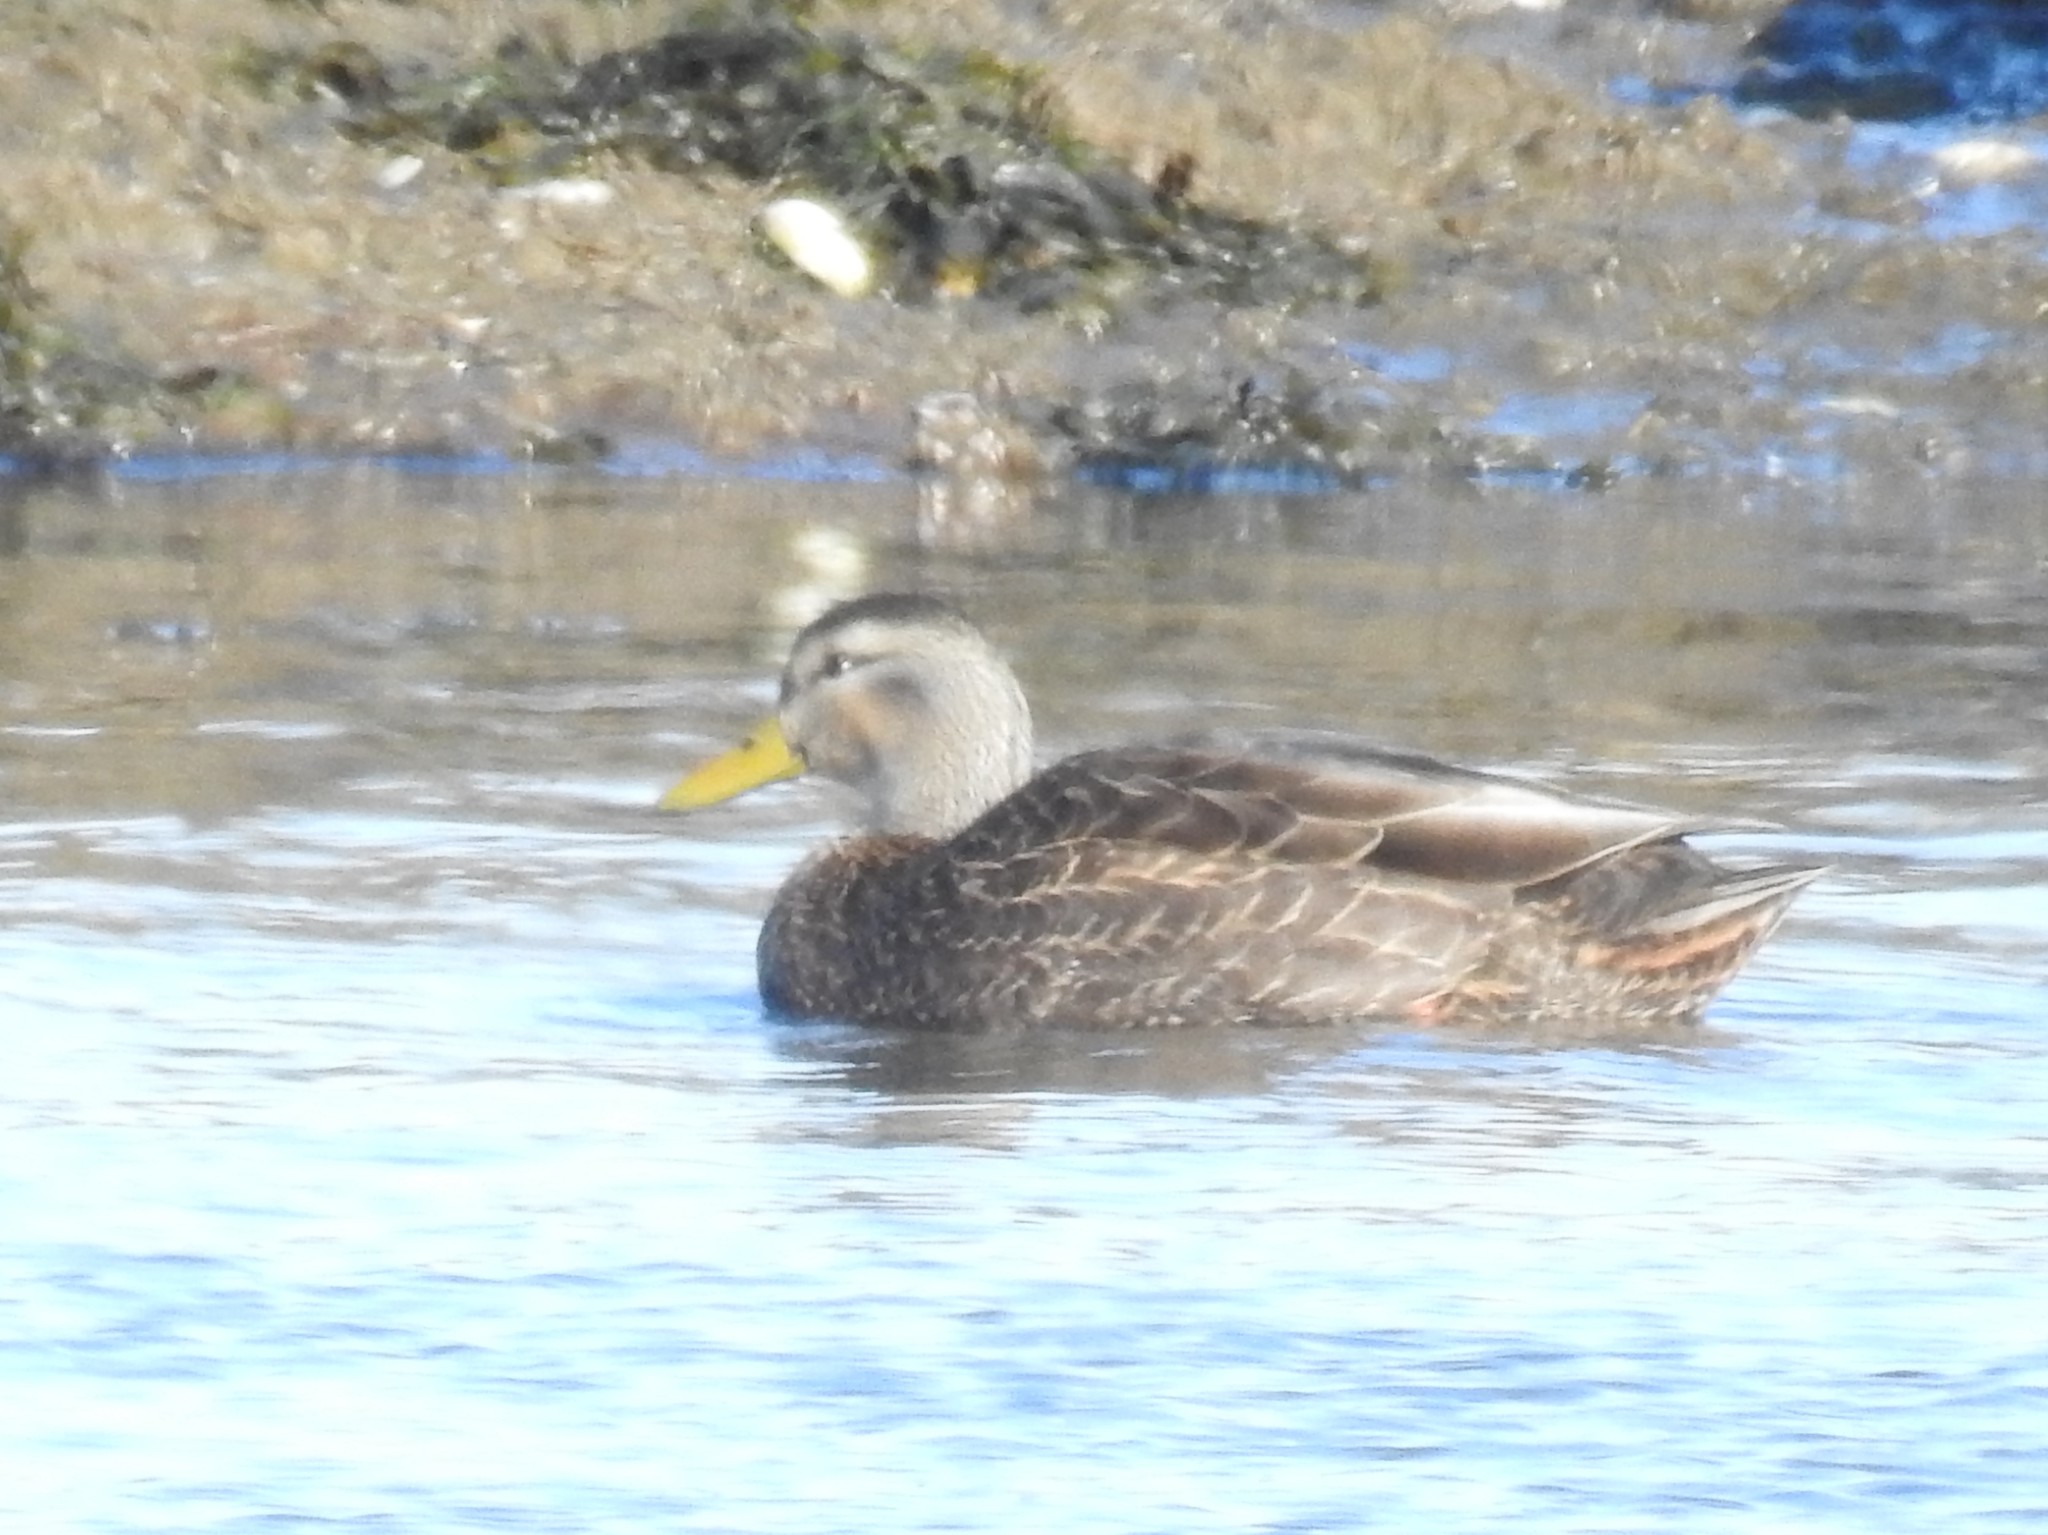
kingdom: Animalia
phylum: Chordata
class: Aves
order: Anseriformes
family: Anatidae
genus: Anas
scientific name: Anas
